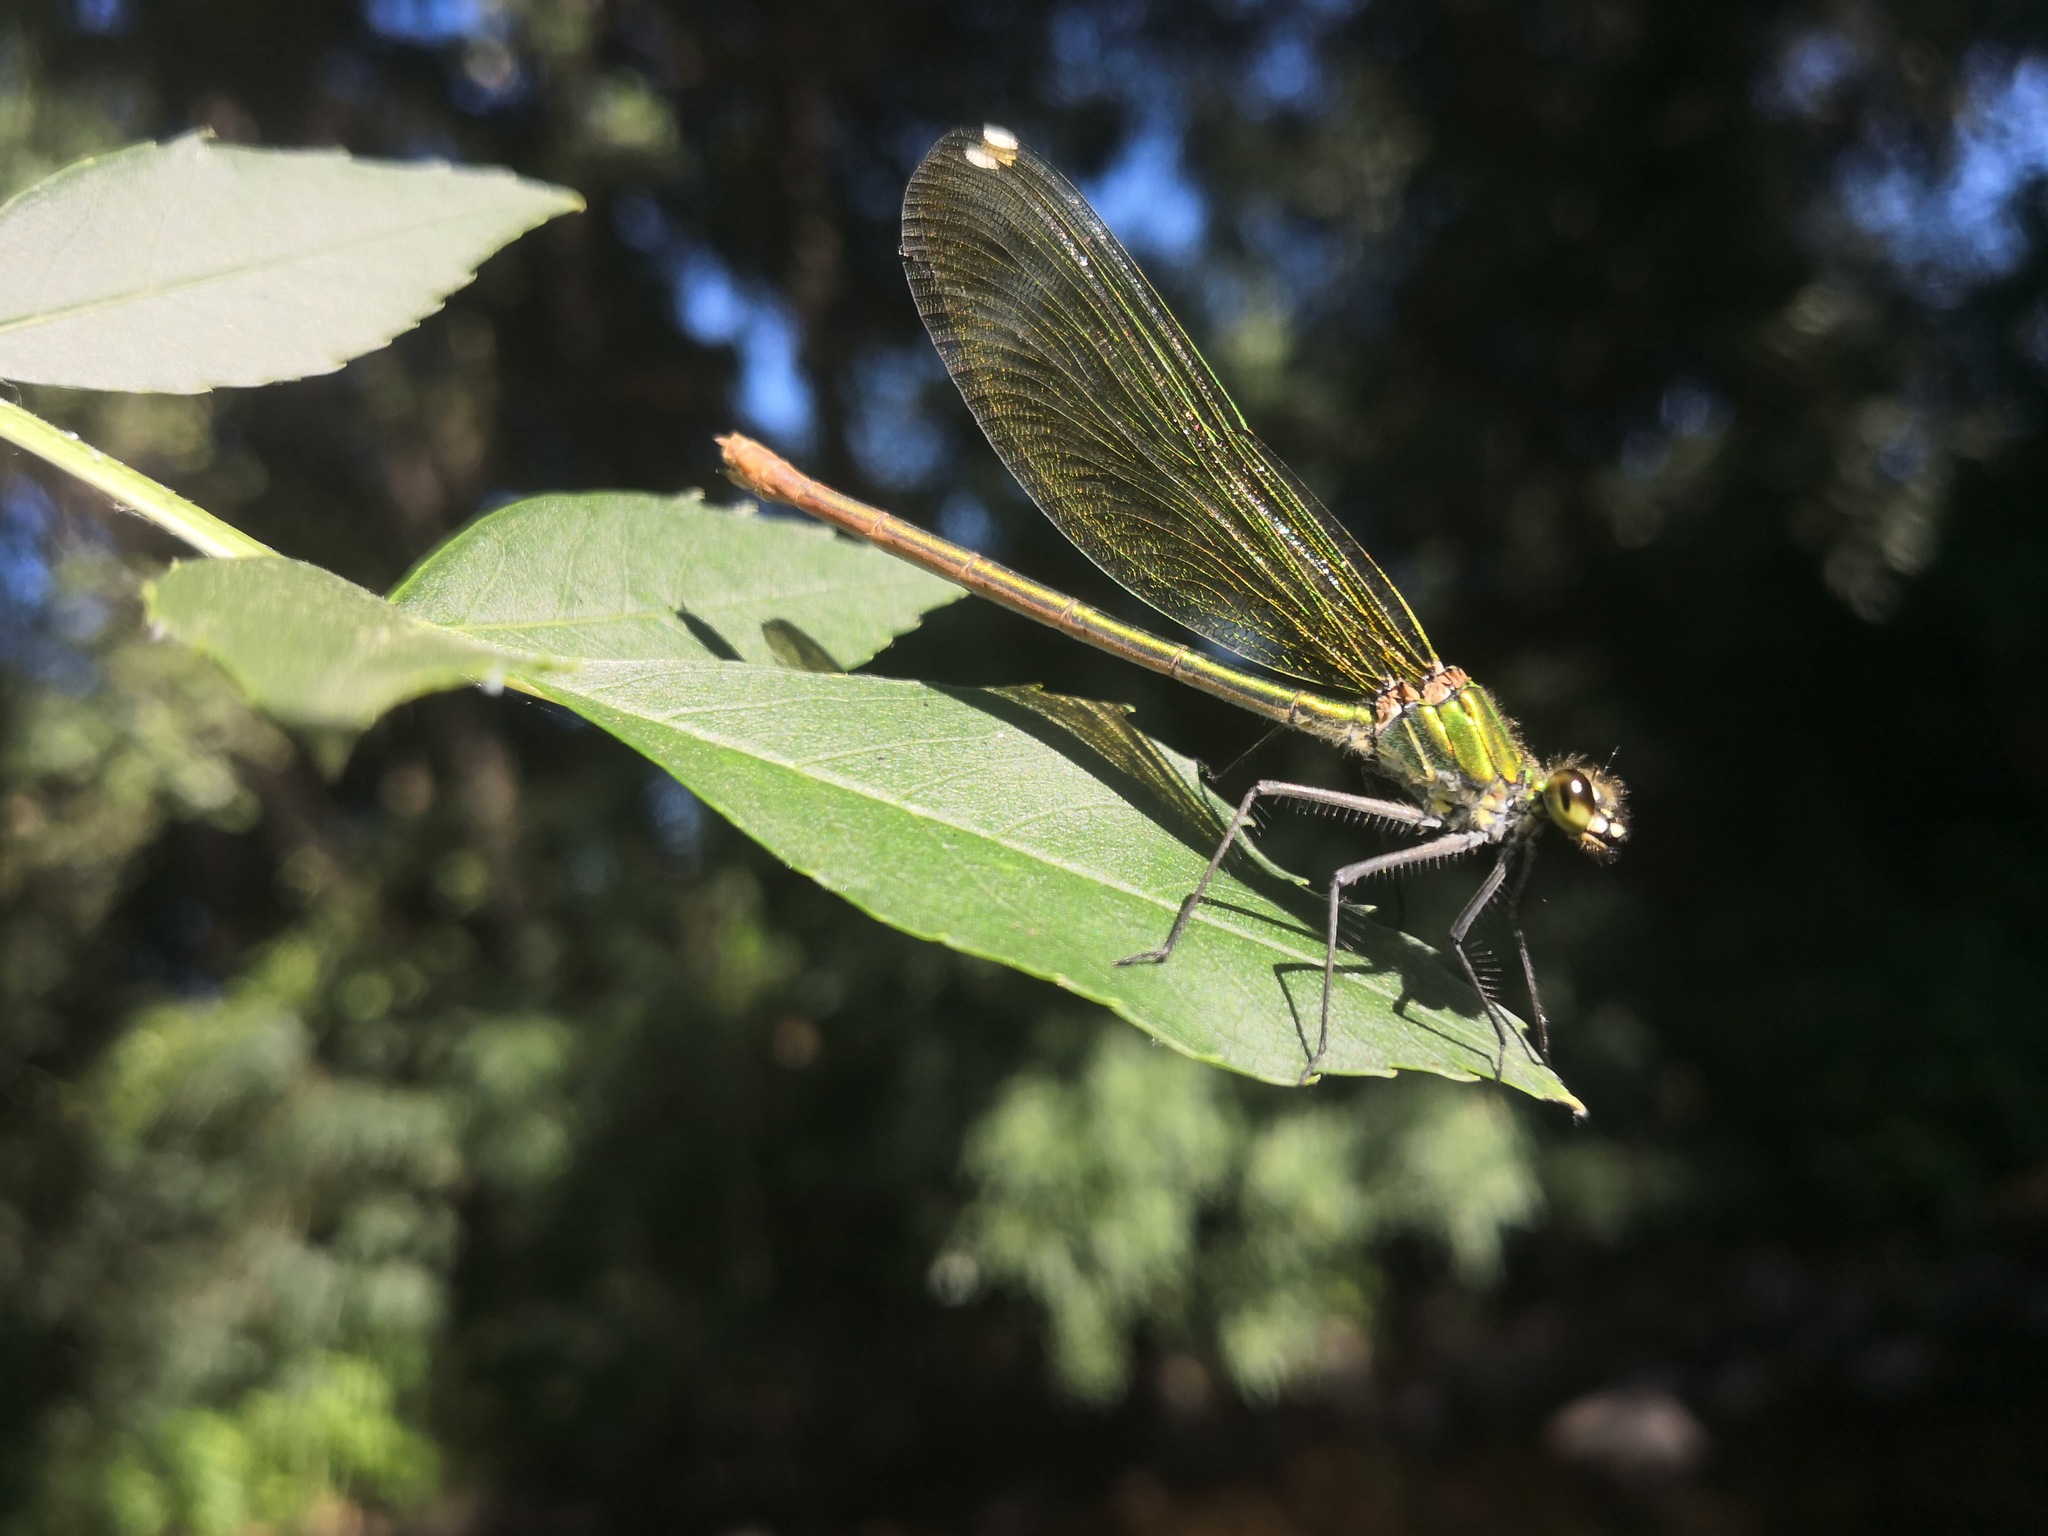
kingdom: Animalia
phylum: Arthropoda
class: Insecta
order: Odonata
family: Calopterygidae
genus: Calopteryx
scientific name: Calopteryx xanthostoma
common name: Western demoiselle
